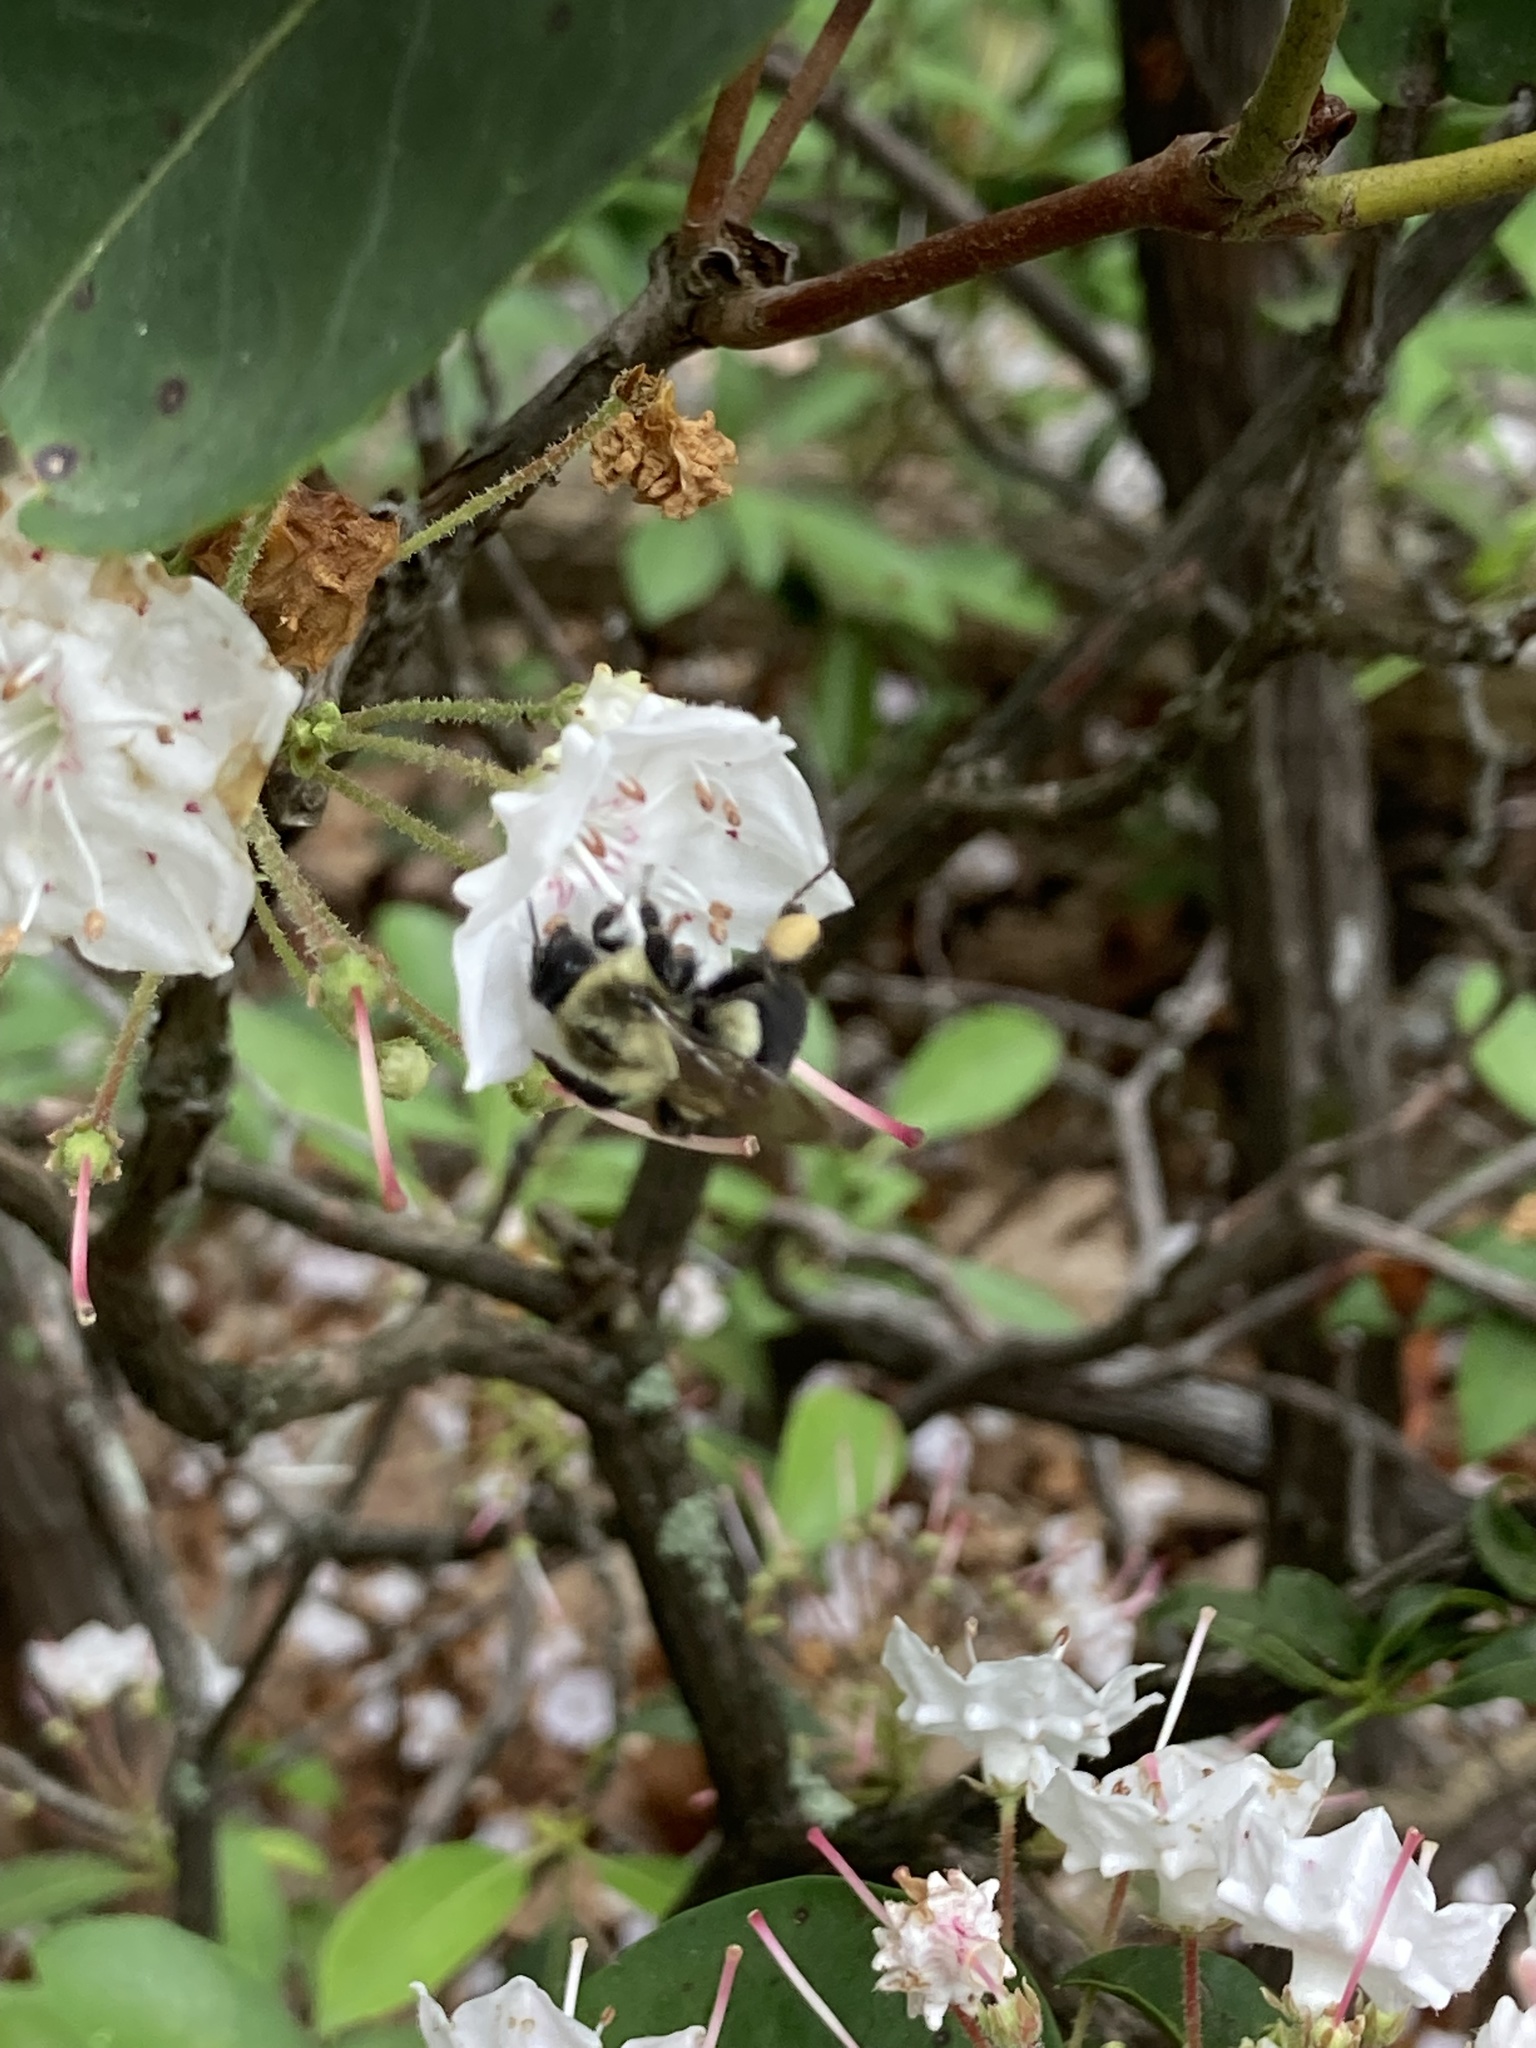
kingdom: Animalia
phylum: Arthropoda
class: Insecta
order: Hymenoptera
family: Apidae
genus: Bombus
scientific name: Bombus impatiens
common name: Common eastern bumble bee
